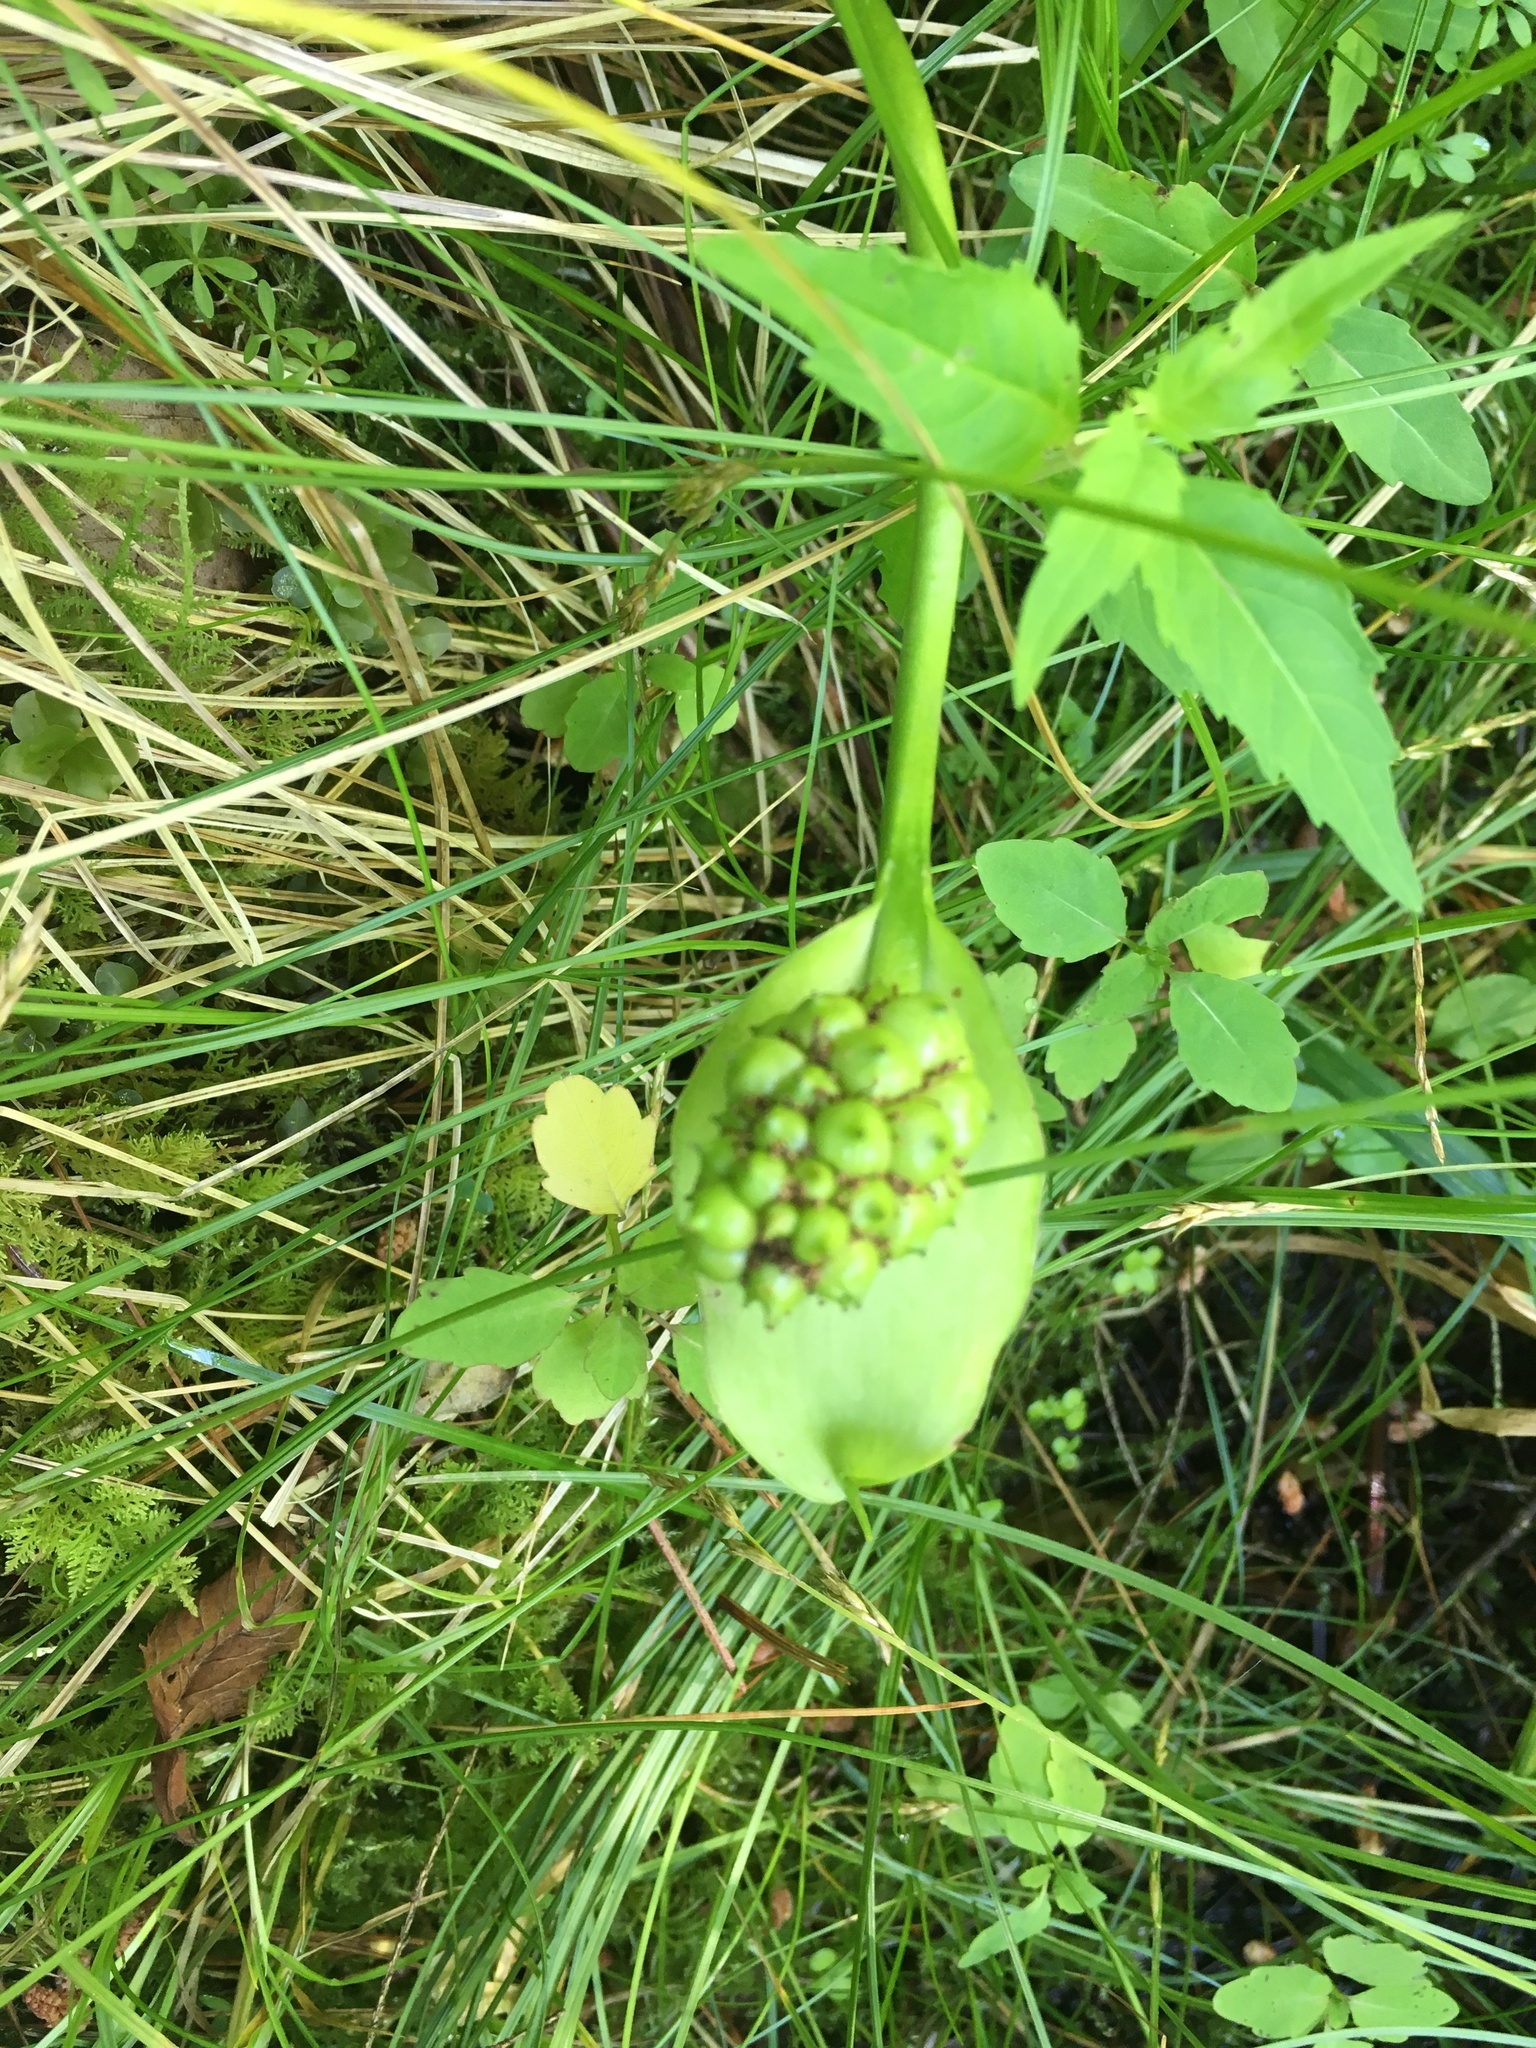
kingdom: Plantae
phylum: Tracheophyta
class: Liliopsida
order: Alismatales
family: Araceae
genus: Calla
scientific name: Calla palustris
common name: Bog arum
